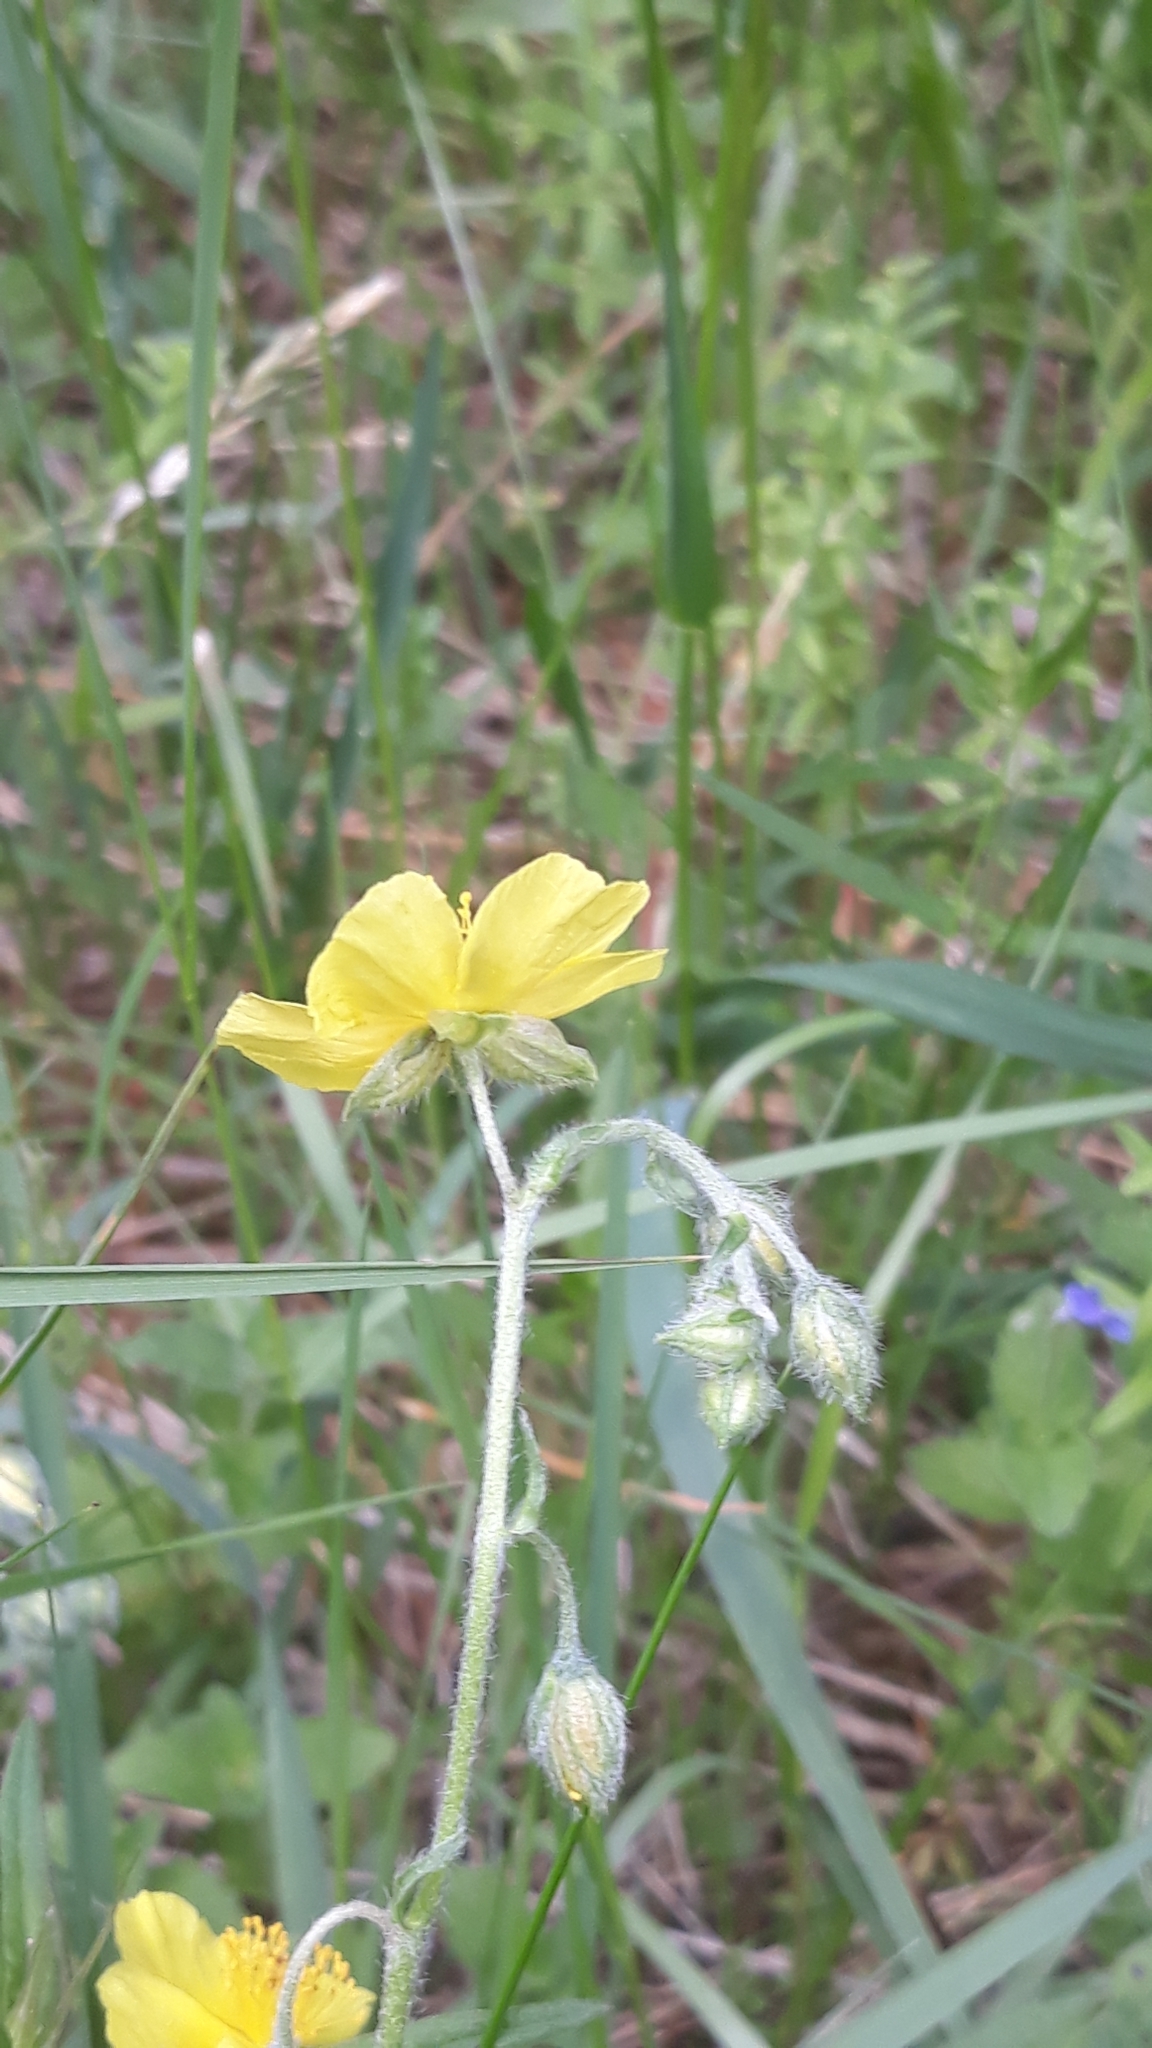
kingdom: Plantae
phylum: Tracheophyta
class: Magnoliopsida
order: Malvales
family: Cistaceae
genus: Helianthemum
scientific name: Helianthemum nummularium
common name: Common rock-rose
